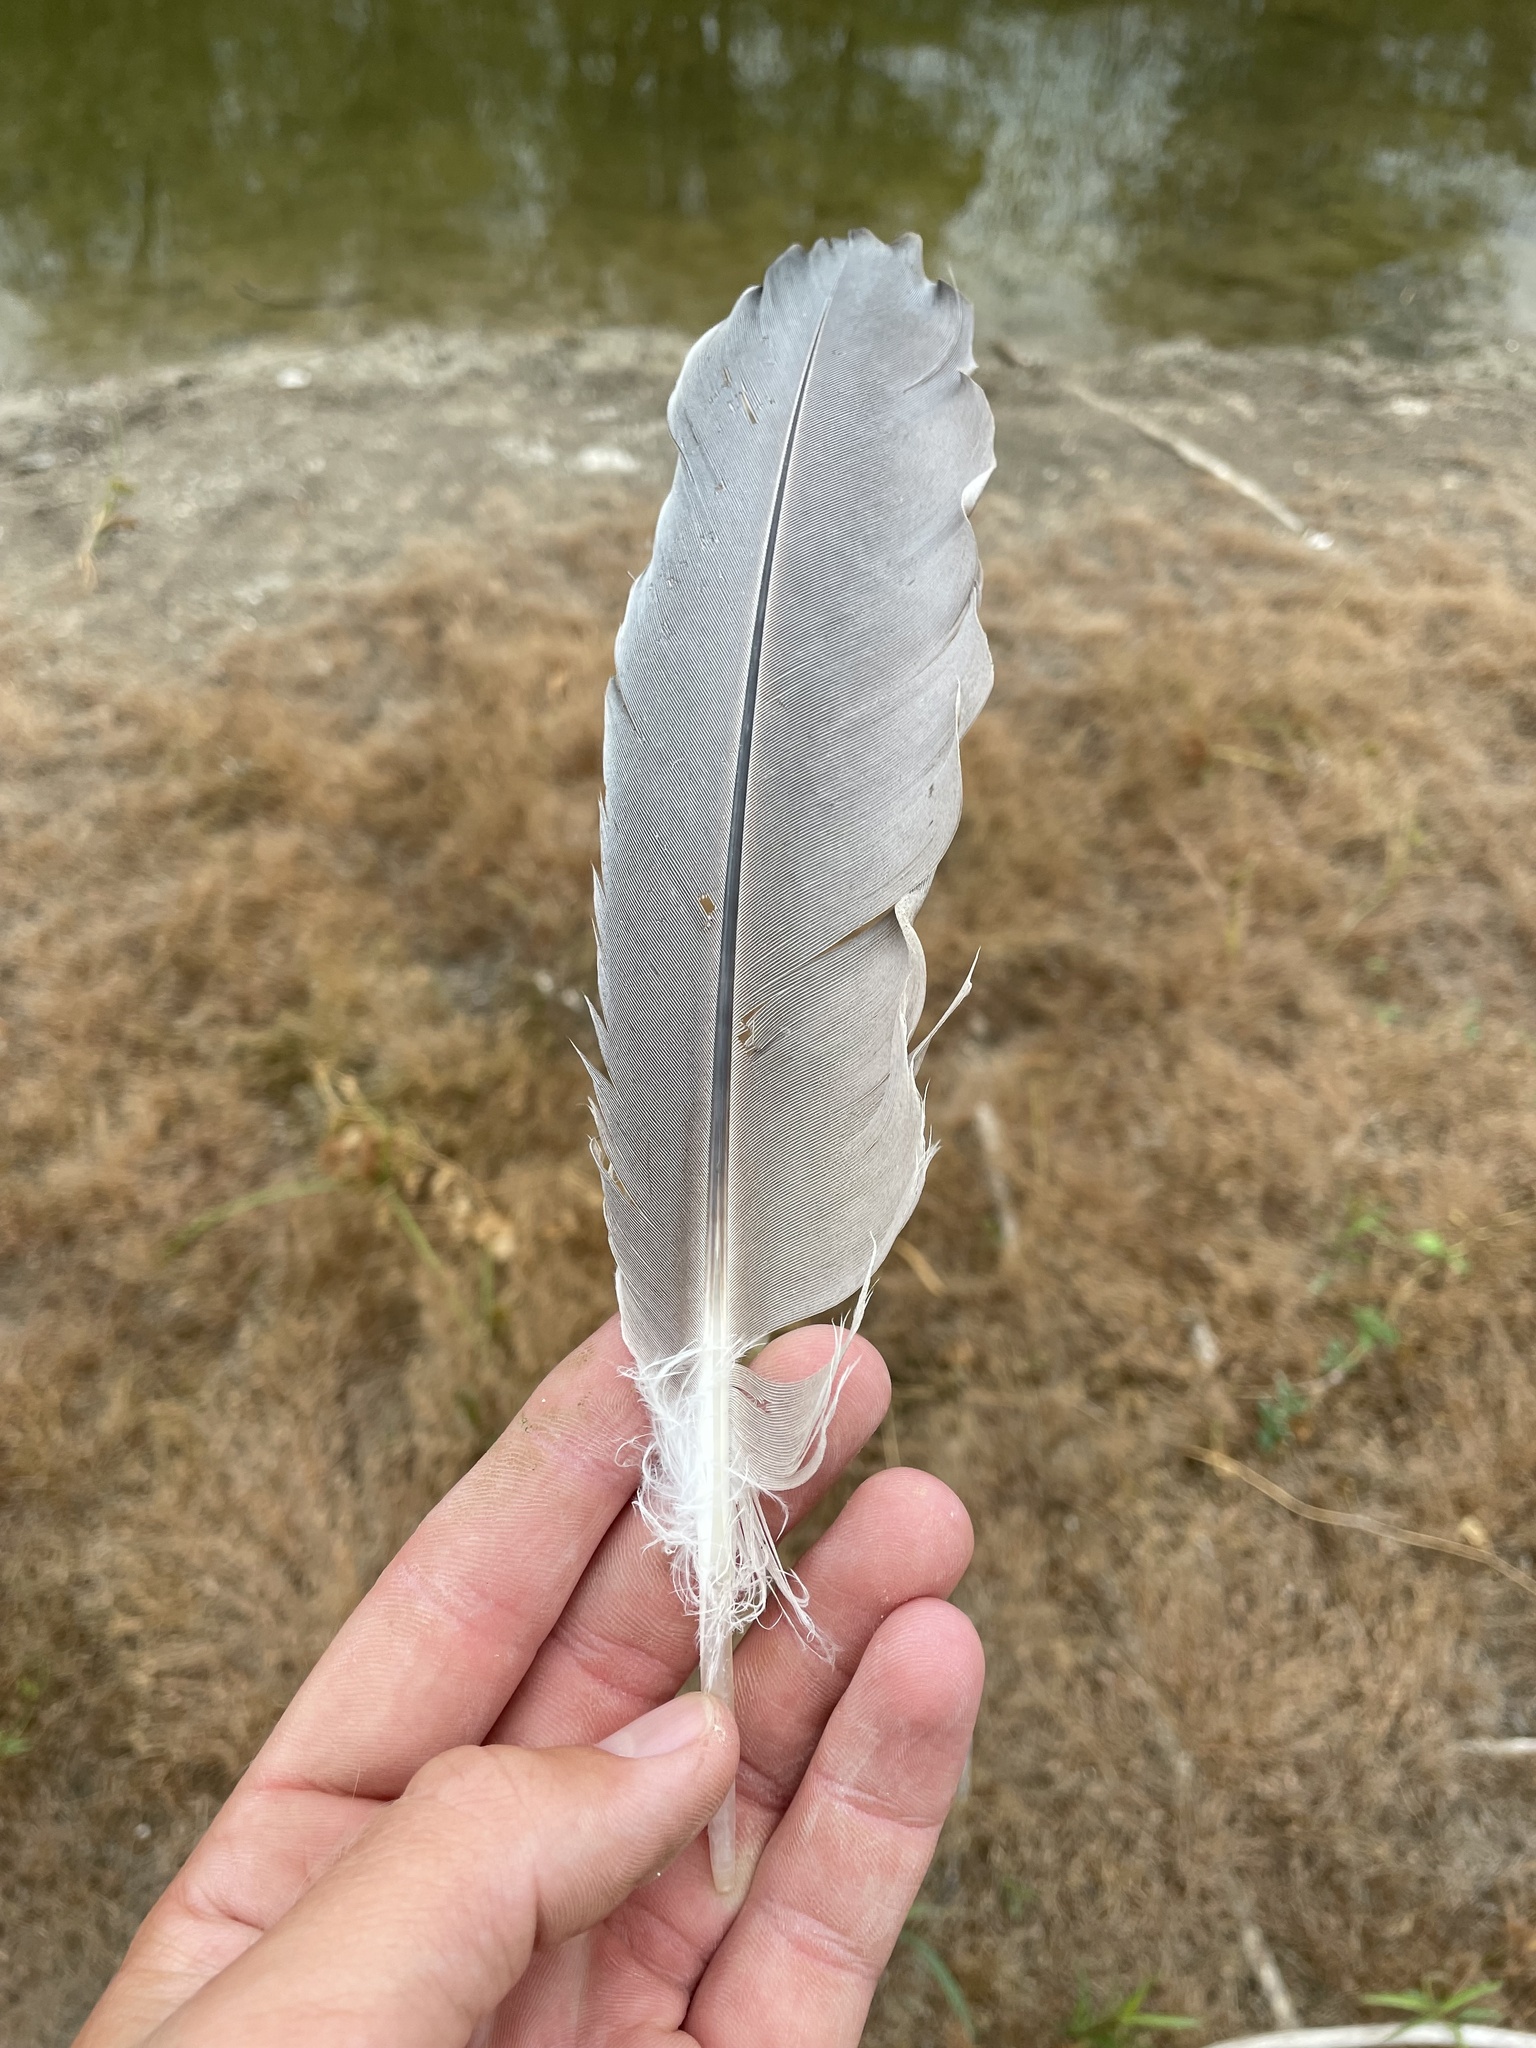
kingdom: Animalia
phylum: Chordata
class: Aves
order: Pelecaniformes
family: Ardeidae
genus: Ardea
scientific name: Ardea herodias
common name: Great blue heron
